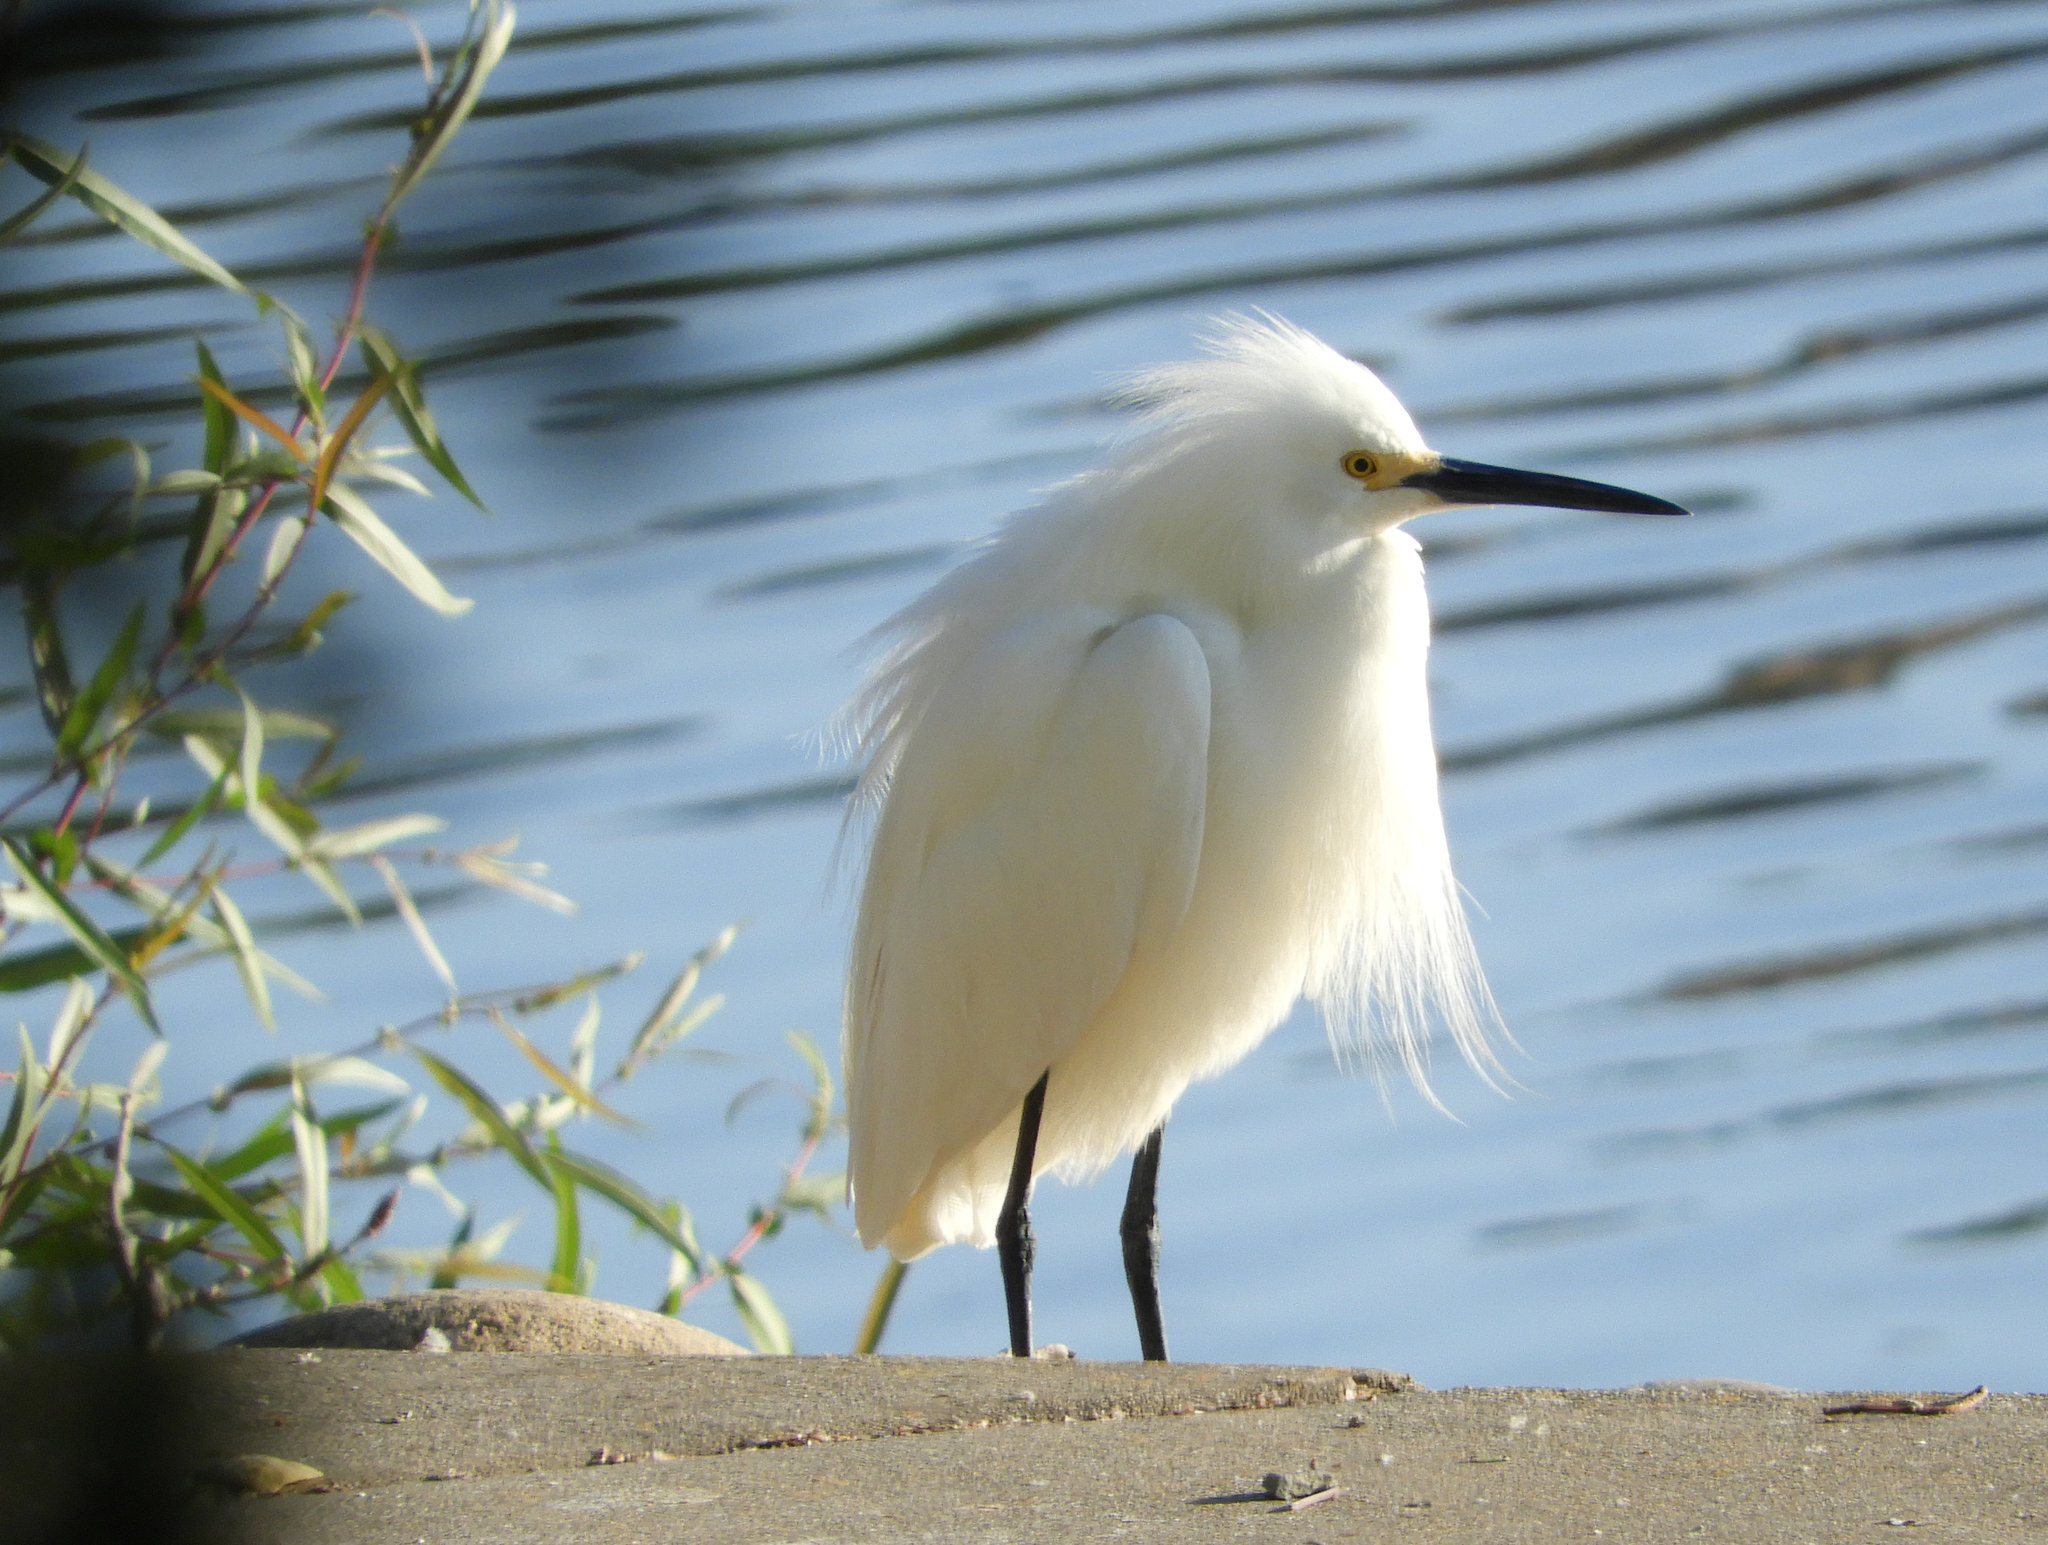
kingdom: Animalia
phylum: Chordata
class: Aves
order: Pelecaniformes
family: Ardeidae
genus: Egretta
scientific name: Egretta thula
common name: Snowy egret
